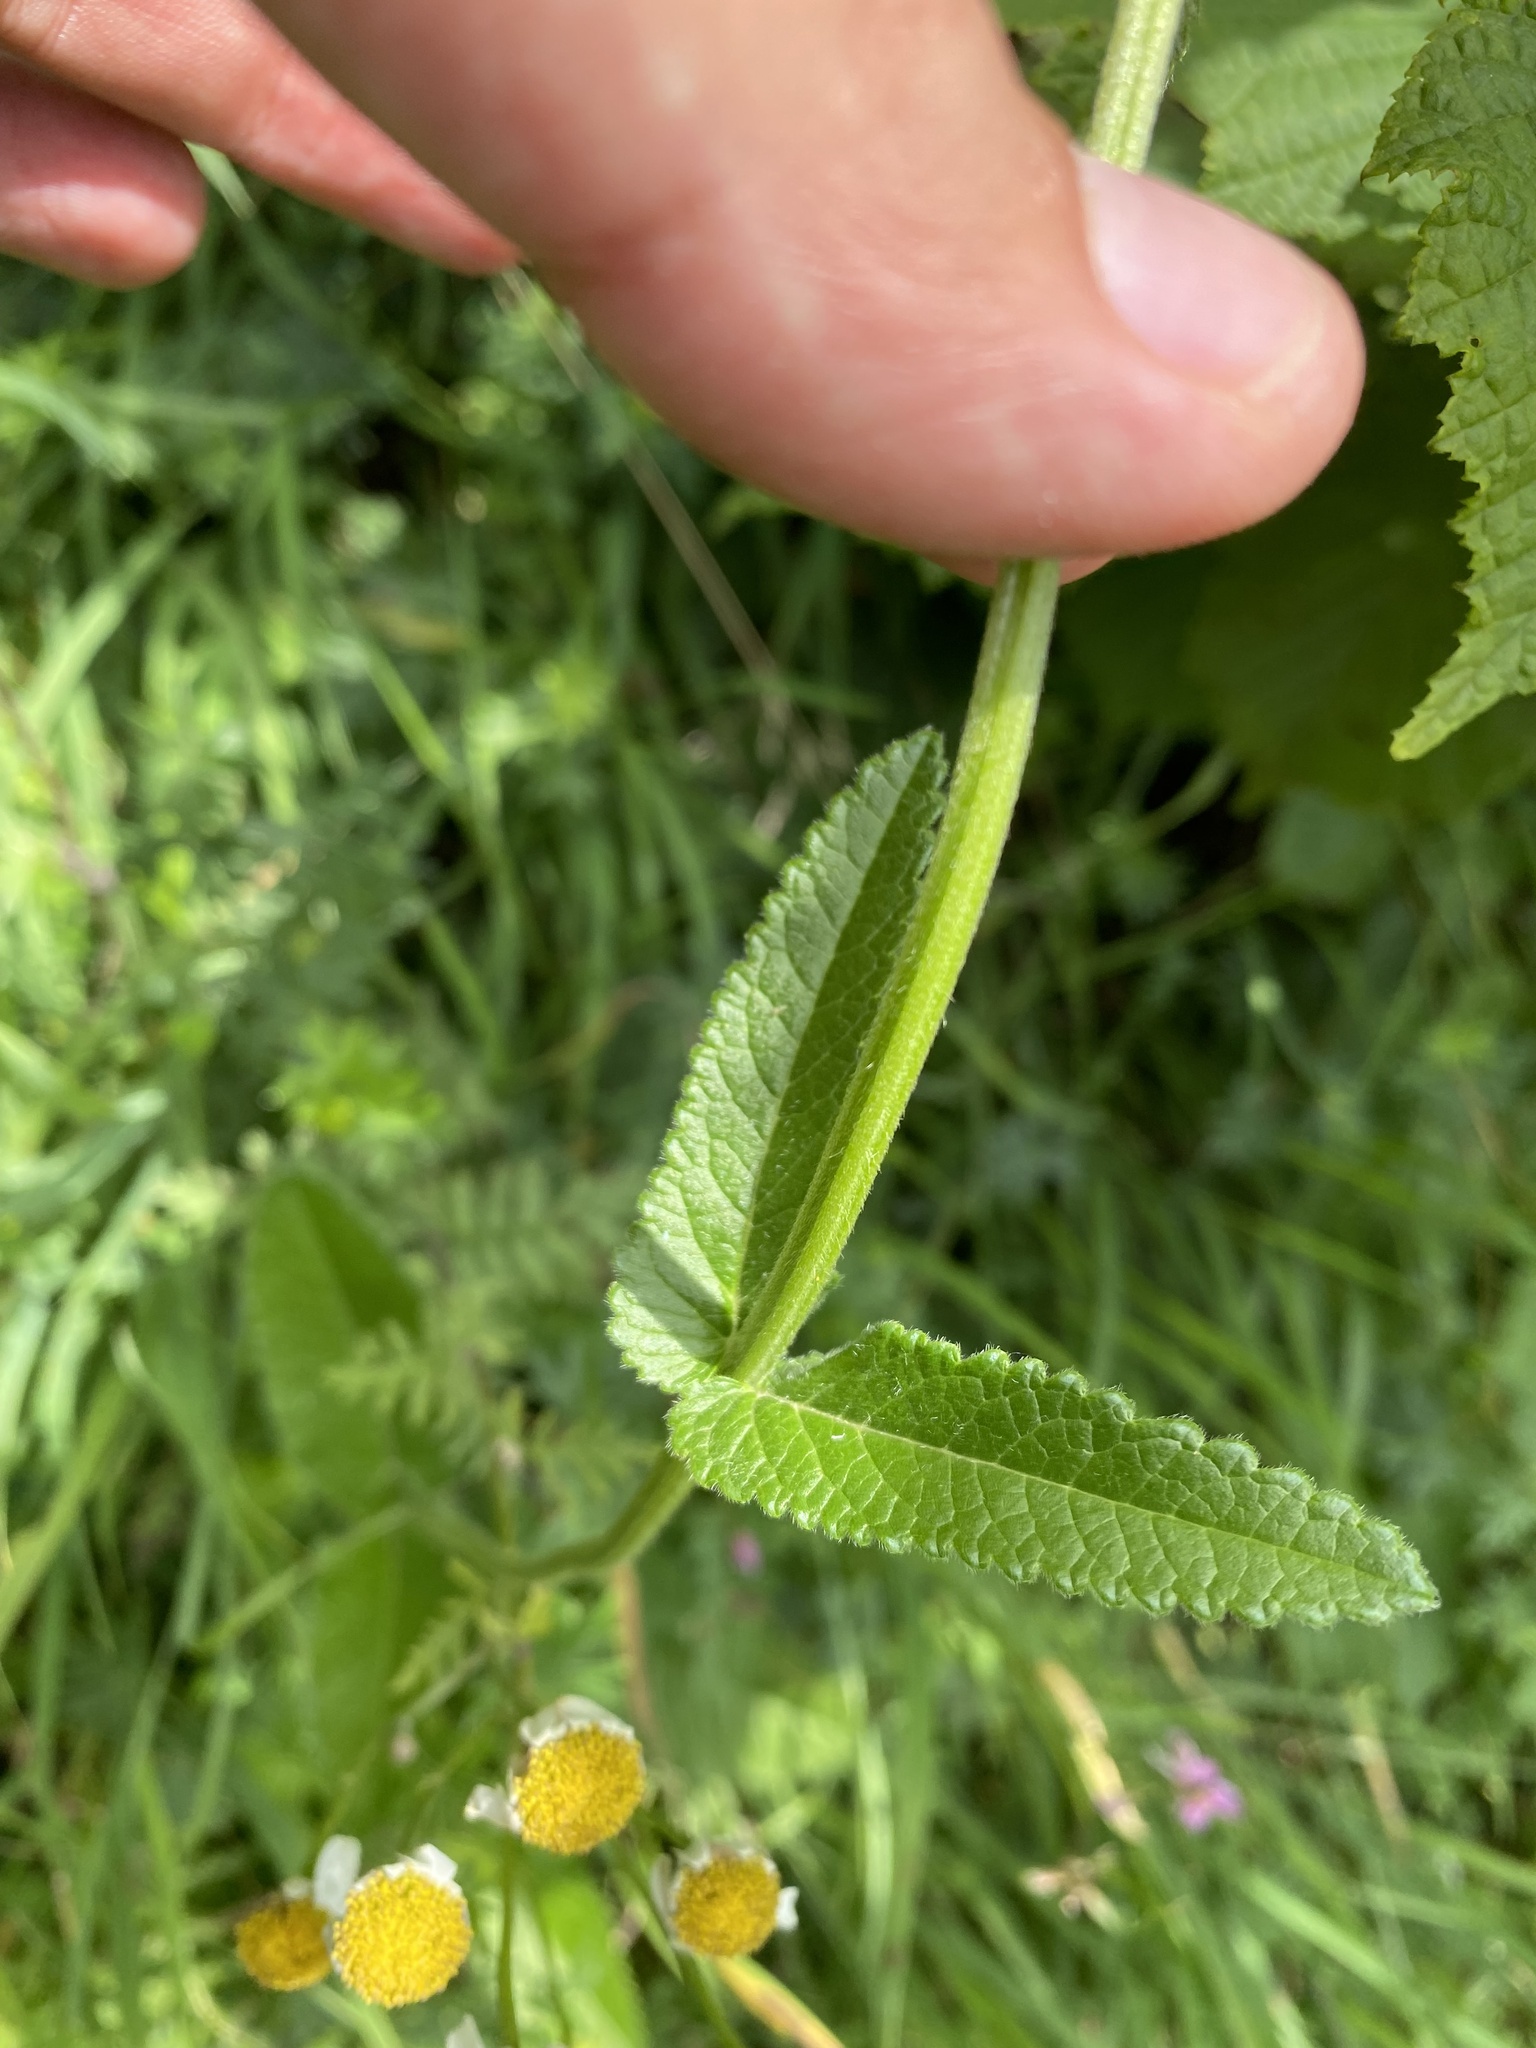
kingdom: Plantae
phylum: Tracheophyta
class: Magnoliopsida
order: Lamiales
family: Lamiaceae
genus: Betonica
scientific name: Betonica officinalis
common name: Bishop's-wort
